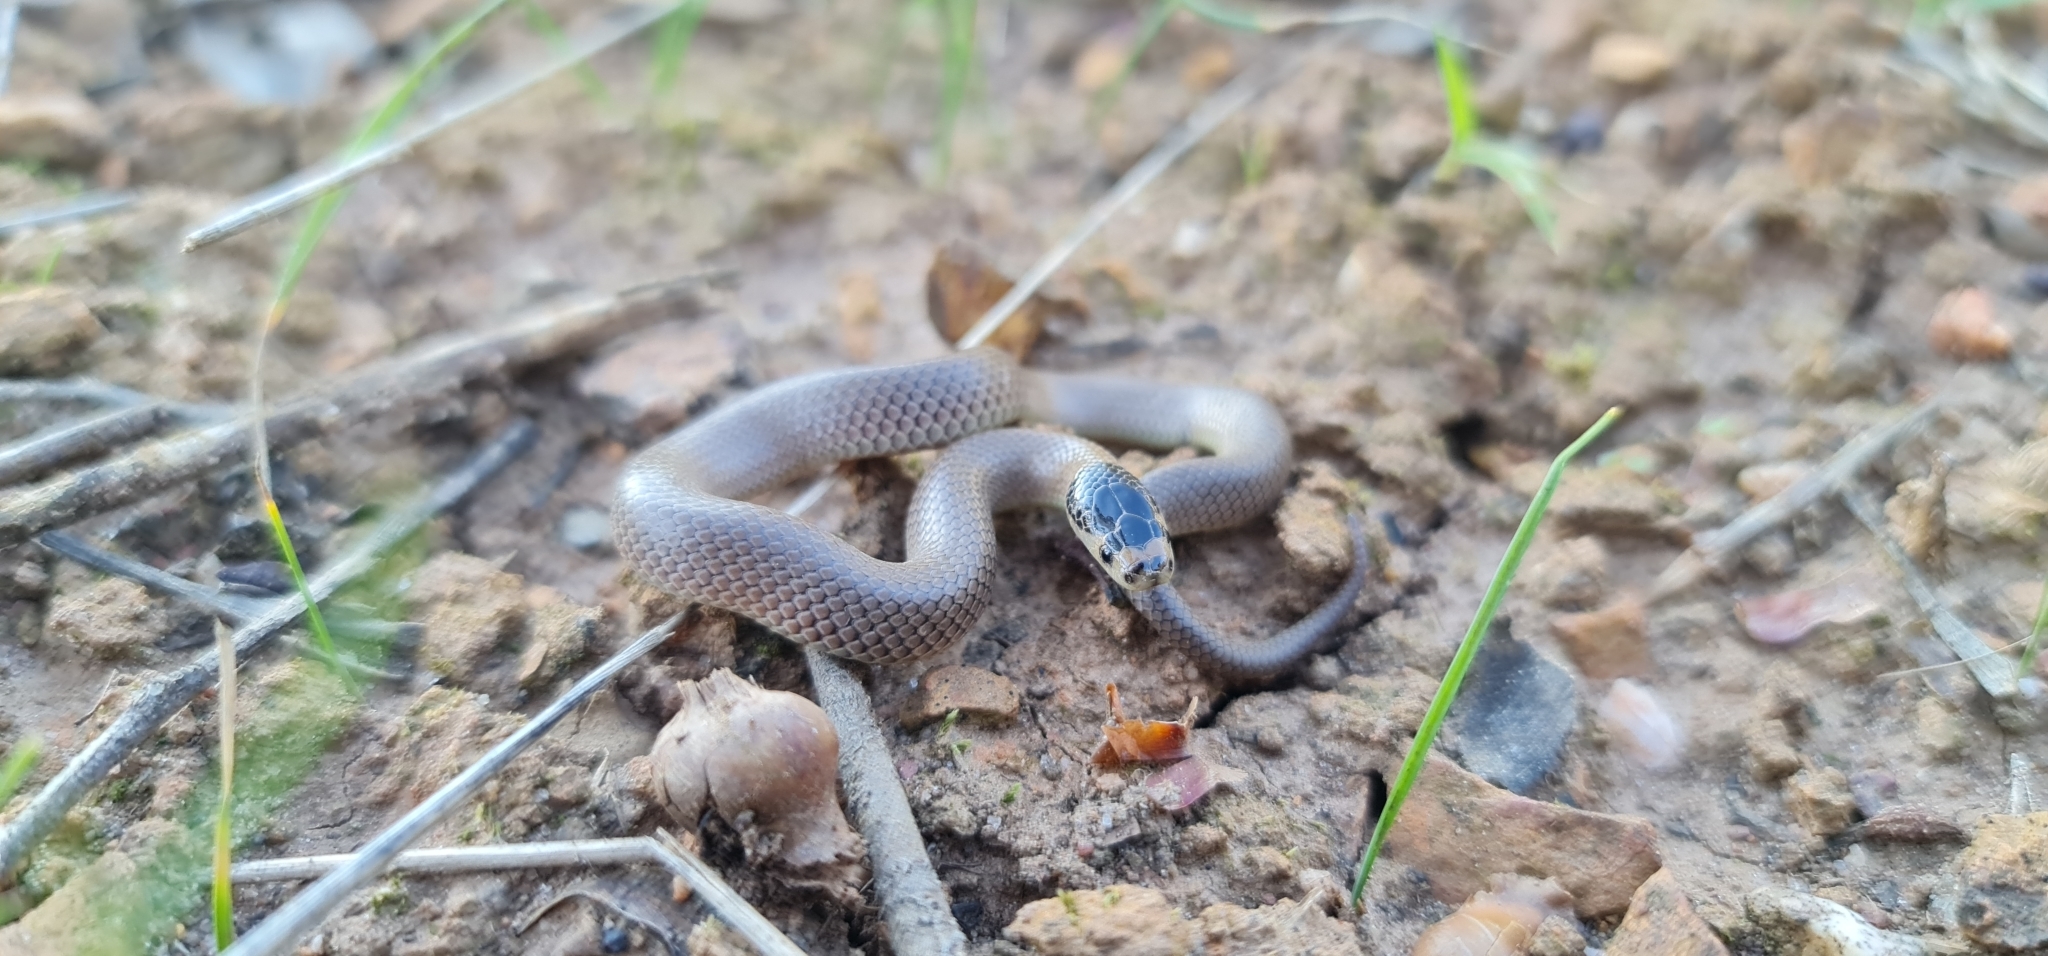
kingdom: Animalia
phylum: Chordata
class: Squamata
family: Elapidae
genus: Suta
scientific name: Suta flagellum
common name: Little whip snake
